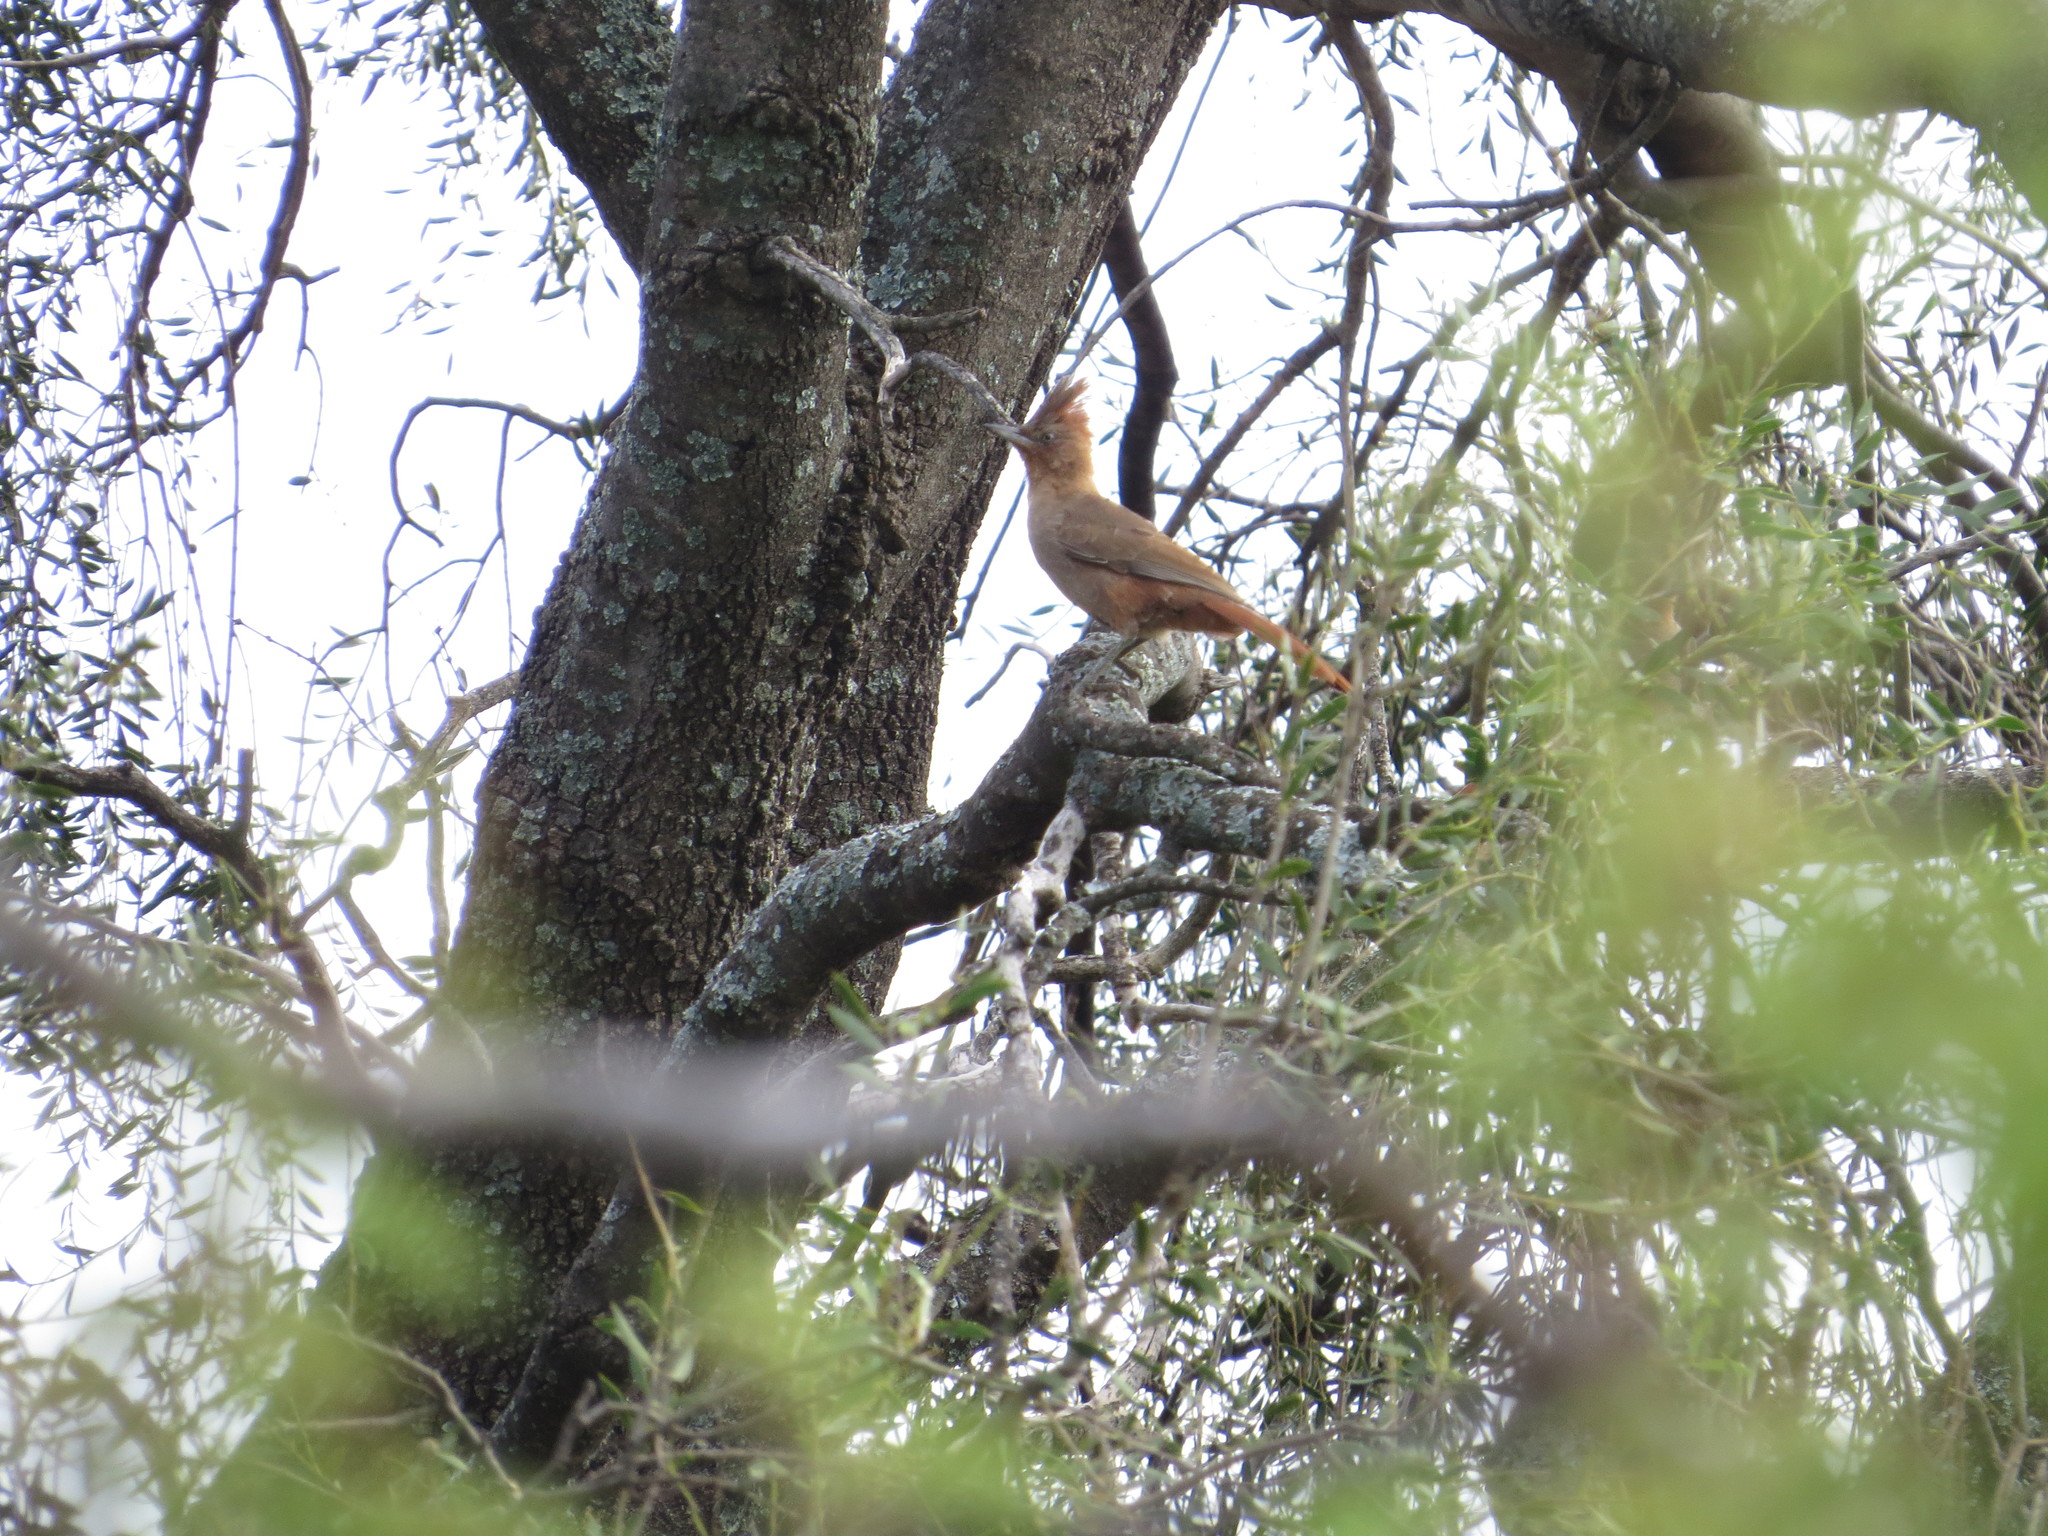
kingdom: Animalia
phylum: Chordata
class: Aves
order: Passeriformes
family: Furnariidae
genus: Pseudoseisura
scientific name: Pseudoseisura lophotes
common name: Brown cacholote
